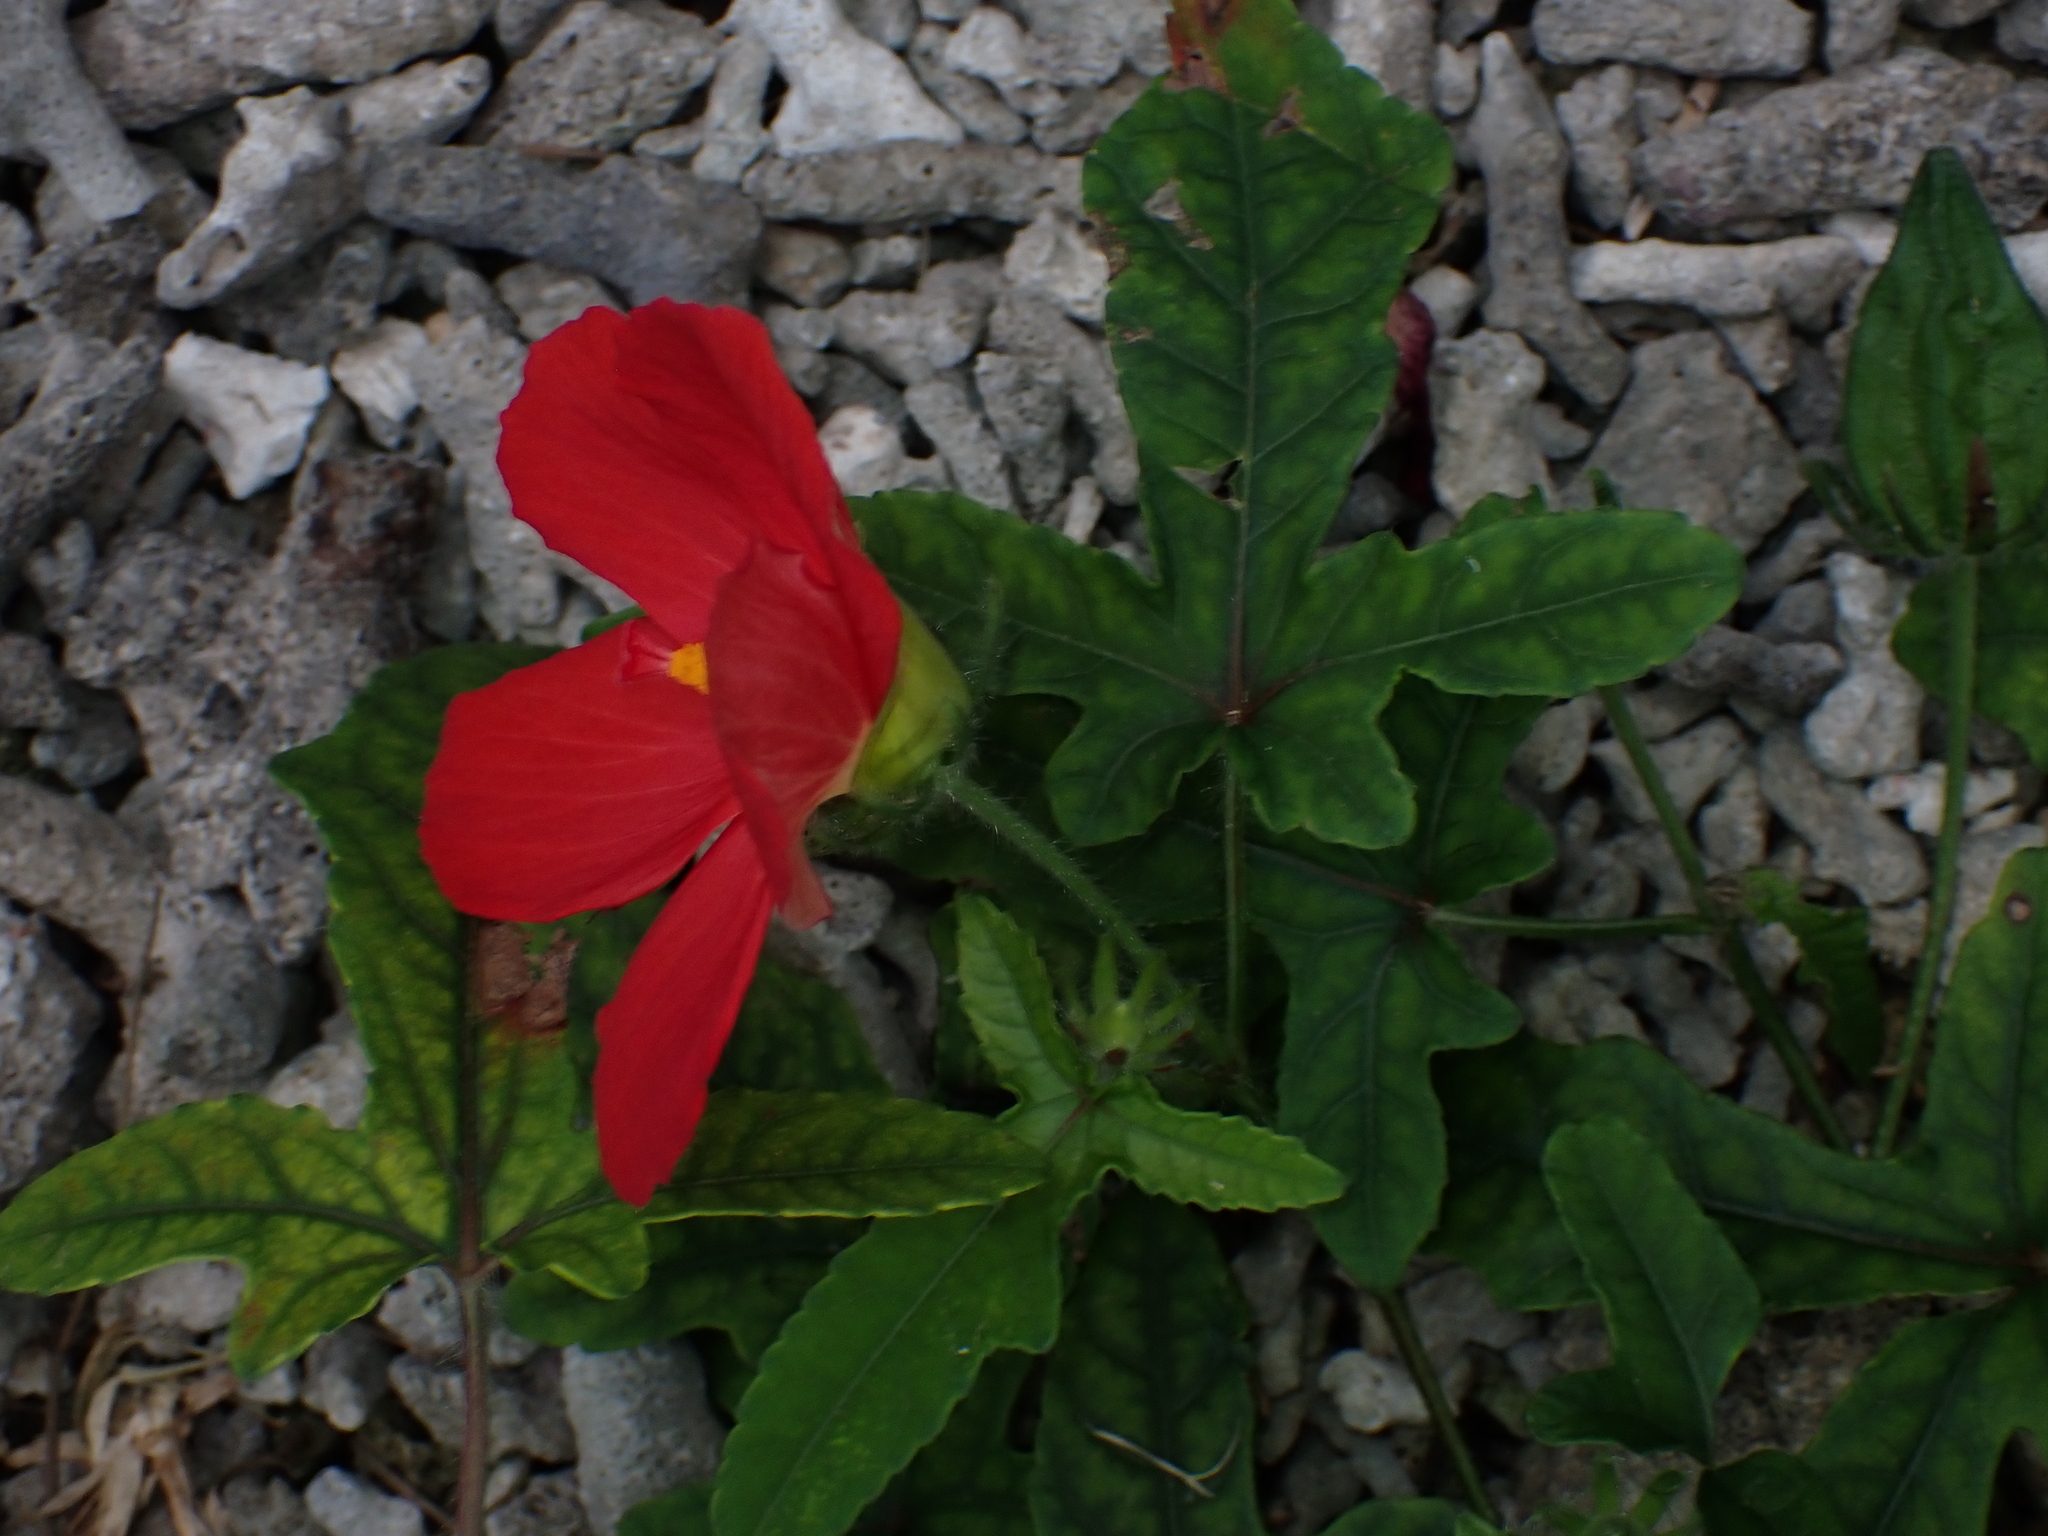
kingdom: Plantae
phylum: Tracheophyta
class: Magnoliopsida
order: Malvales
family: Malvaceae
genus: Abelmoschus
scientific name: Abelmoschus sagittifolius
